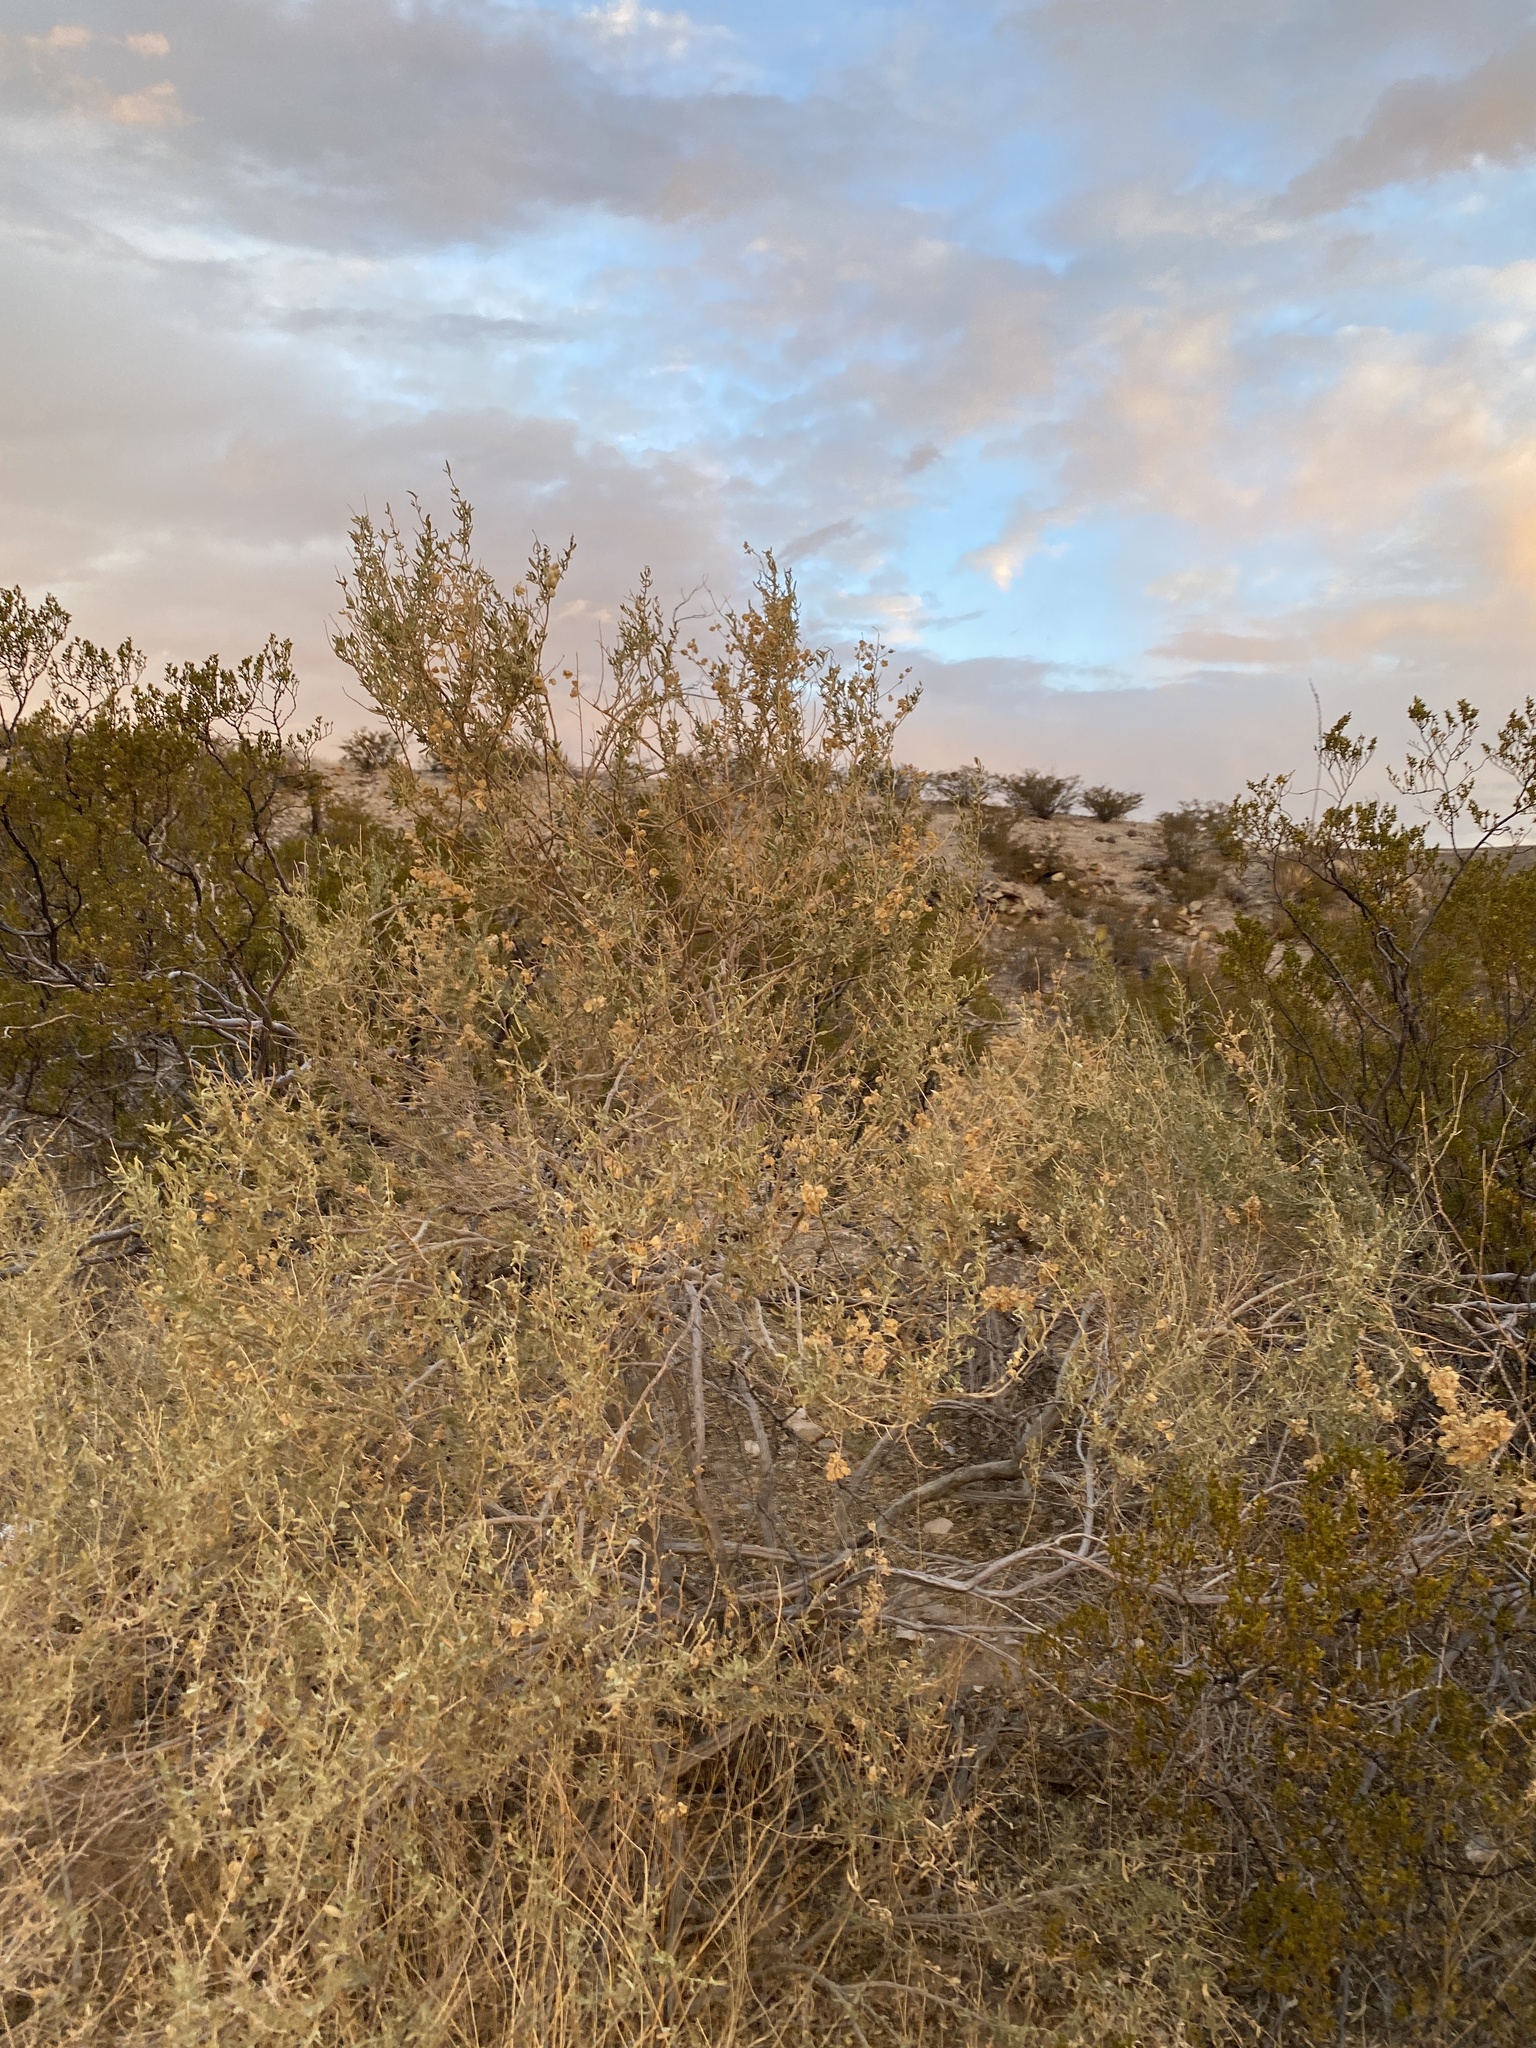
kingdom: Plantae
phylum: Tracheophyta
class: Magnoliopsida
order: Caryophyllales
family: Amaranthaceae
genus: Atriplex
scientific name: Atriplex canescens
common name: Four-wing saltbush
